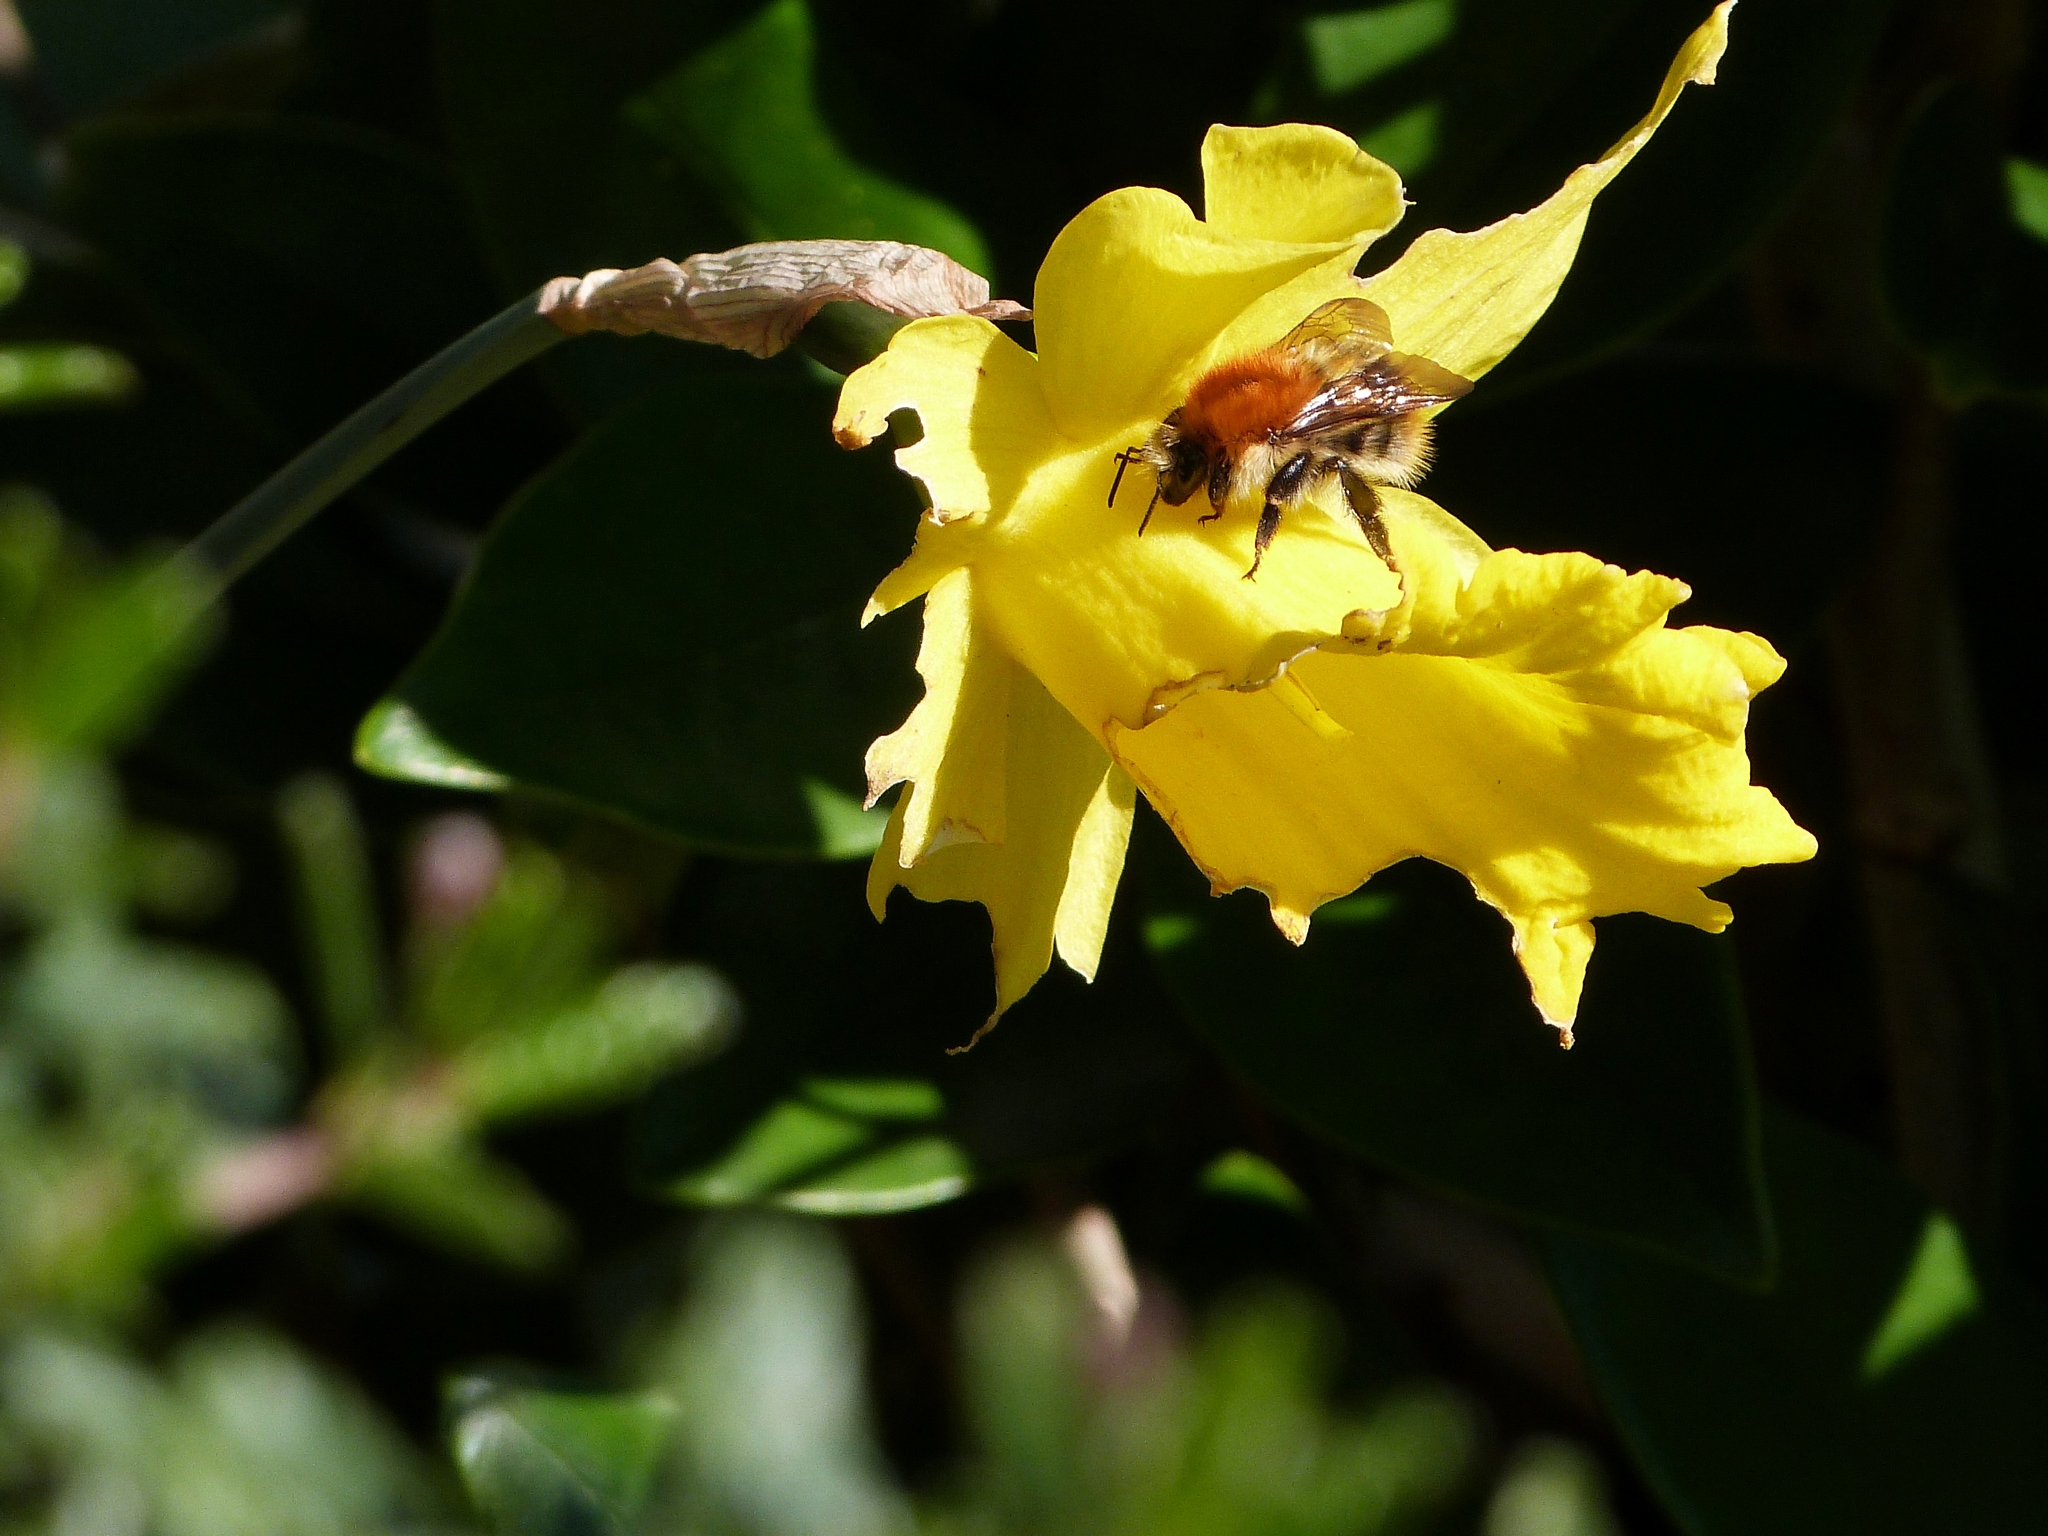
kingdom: Animalia
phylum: Arthropoda
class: Insecta
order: Hymenoptera
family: Apidae
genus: Bombus
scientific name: Bombus pascuorum
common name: Common carder bee
